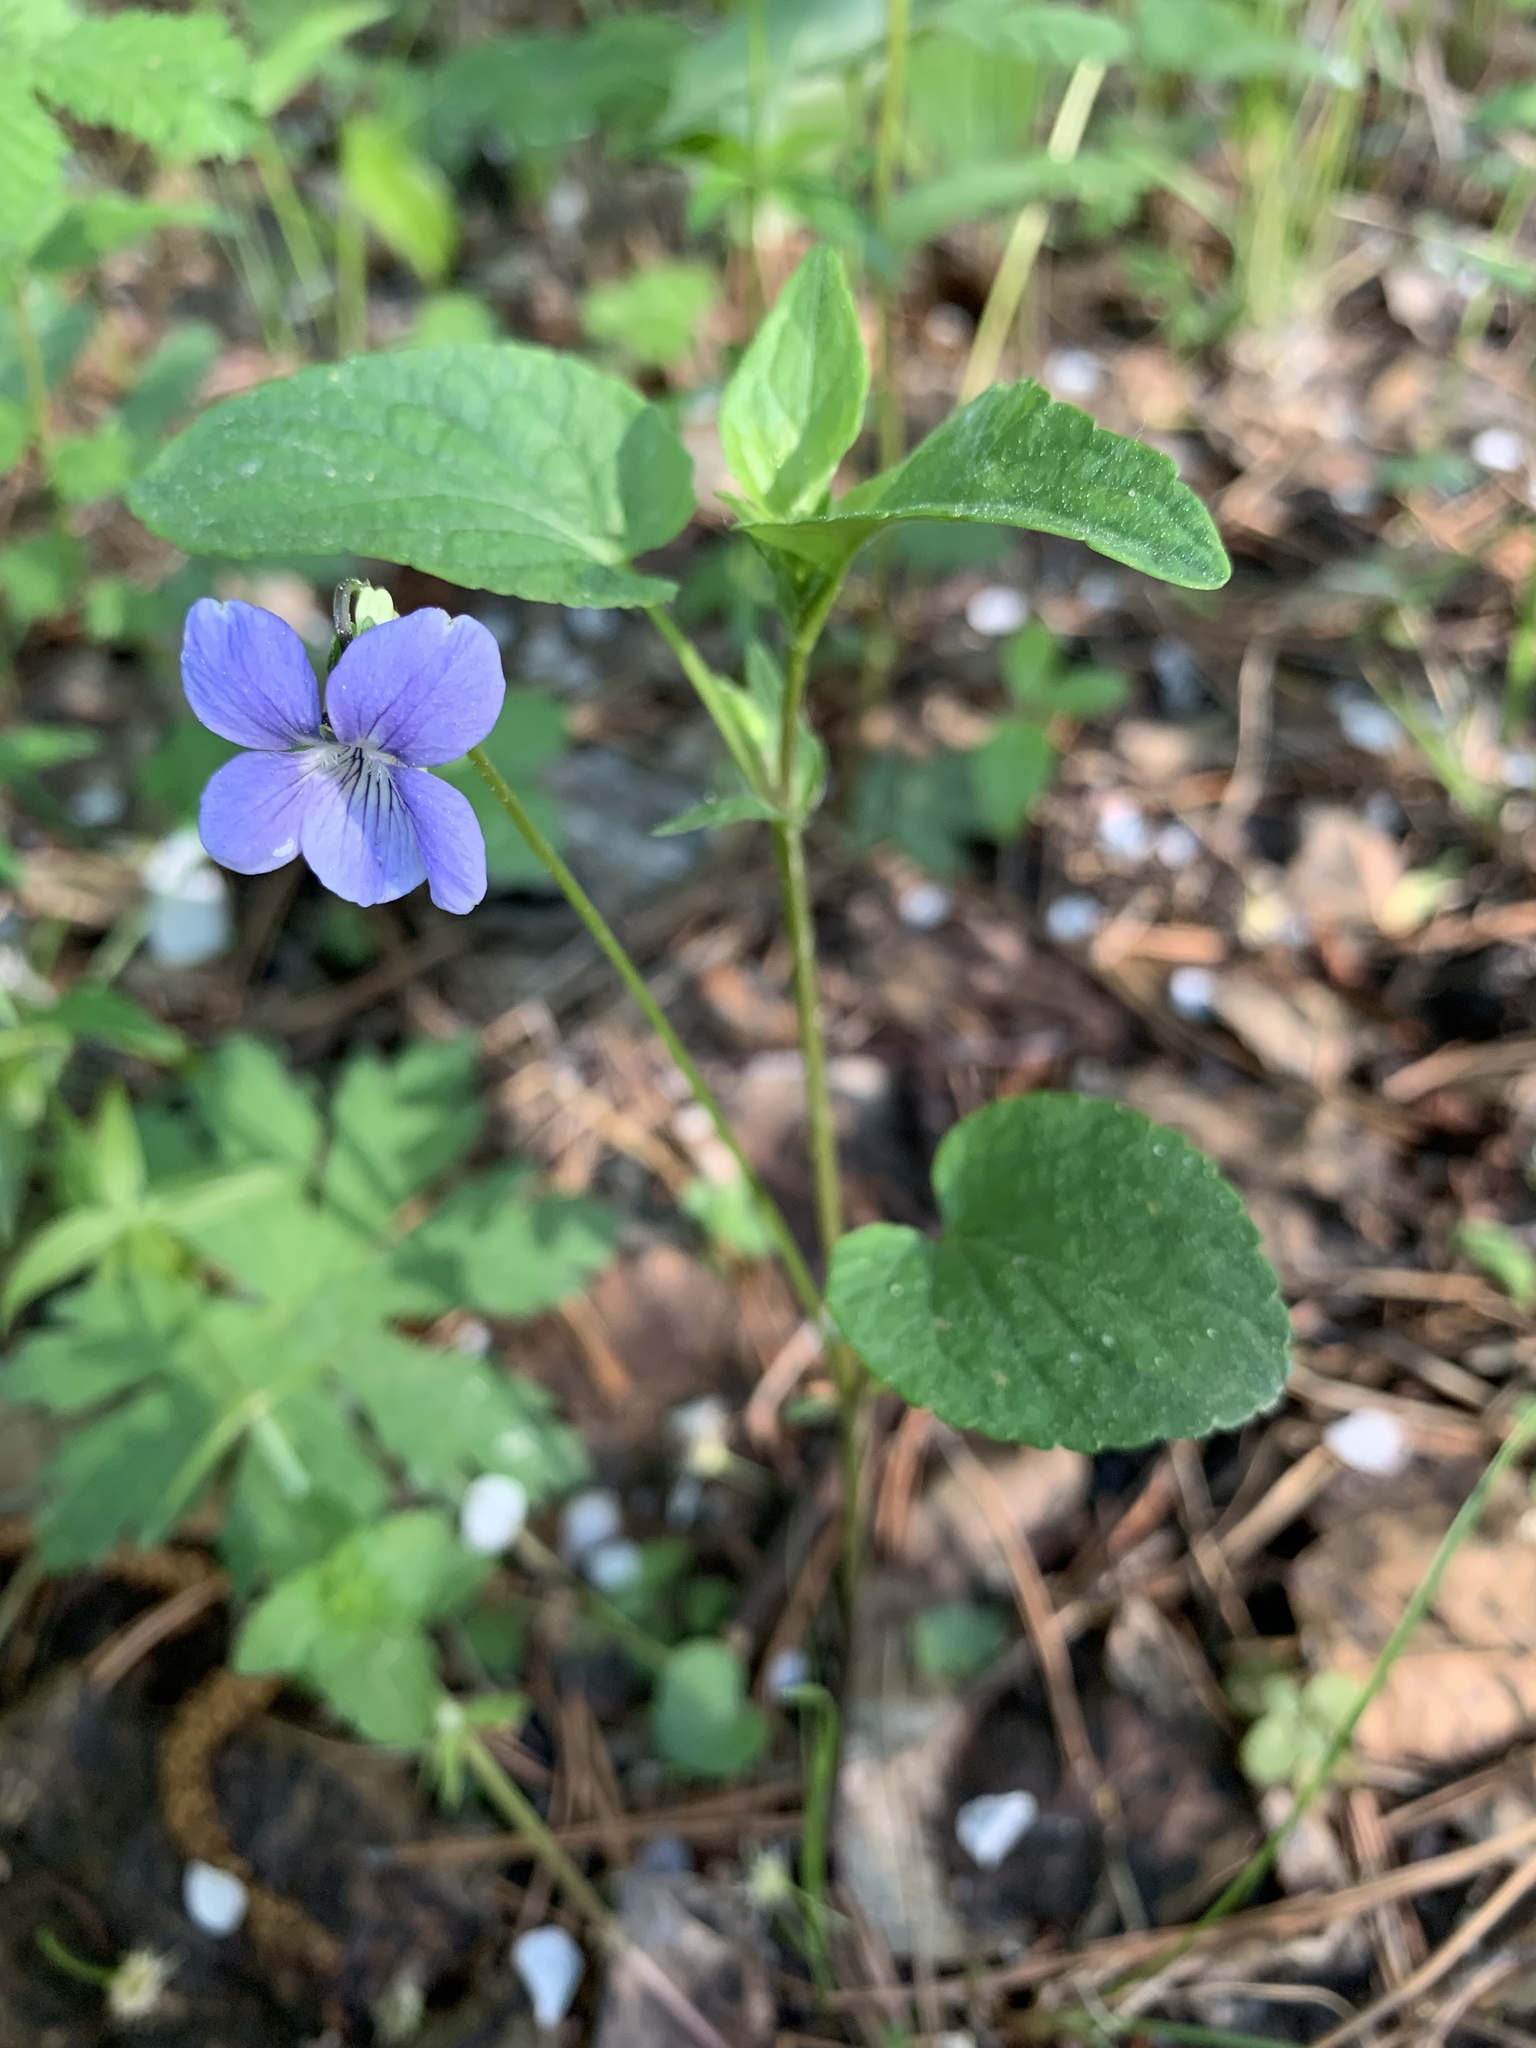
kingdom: Plantae
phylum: Tracheophyta
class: Magnoliopsida
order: Malpighiales
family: Violaceae
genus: Viola
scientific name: Viola
